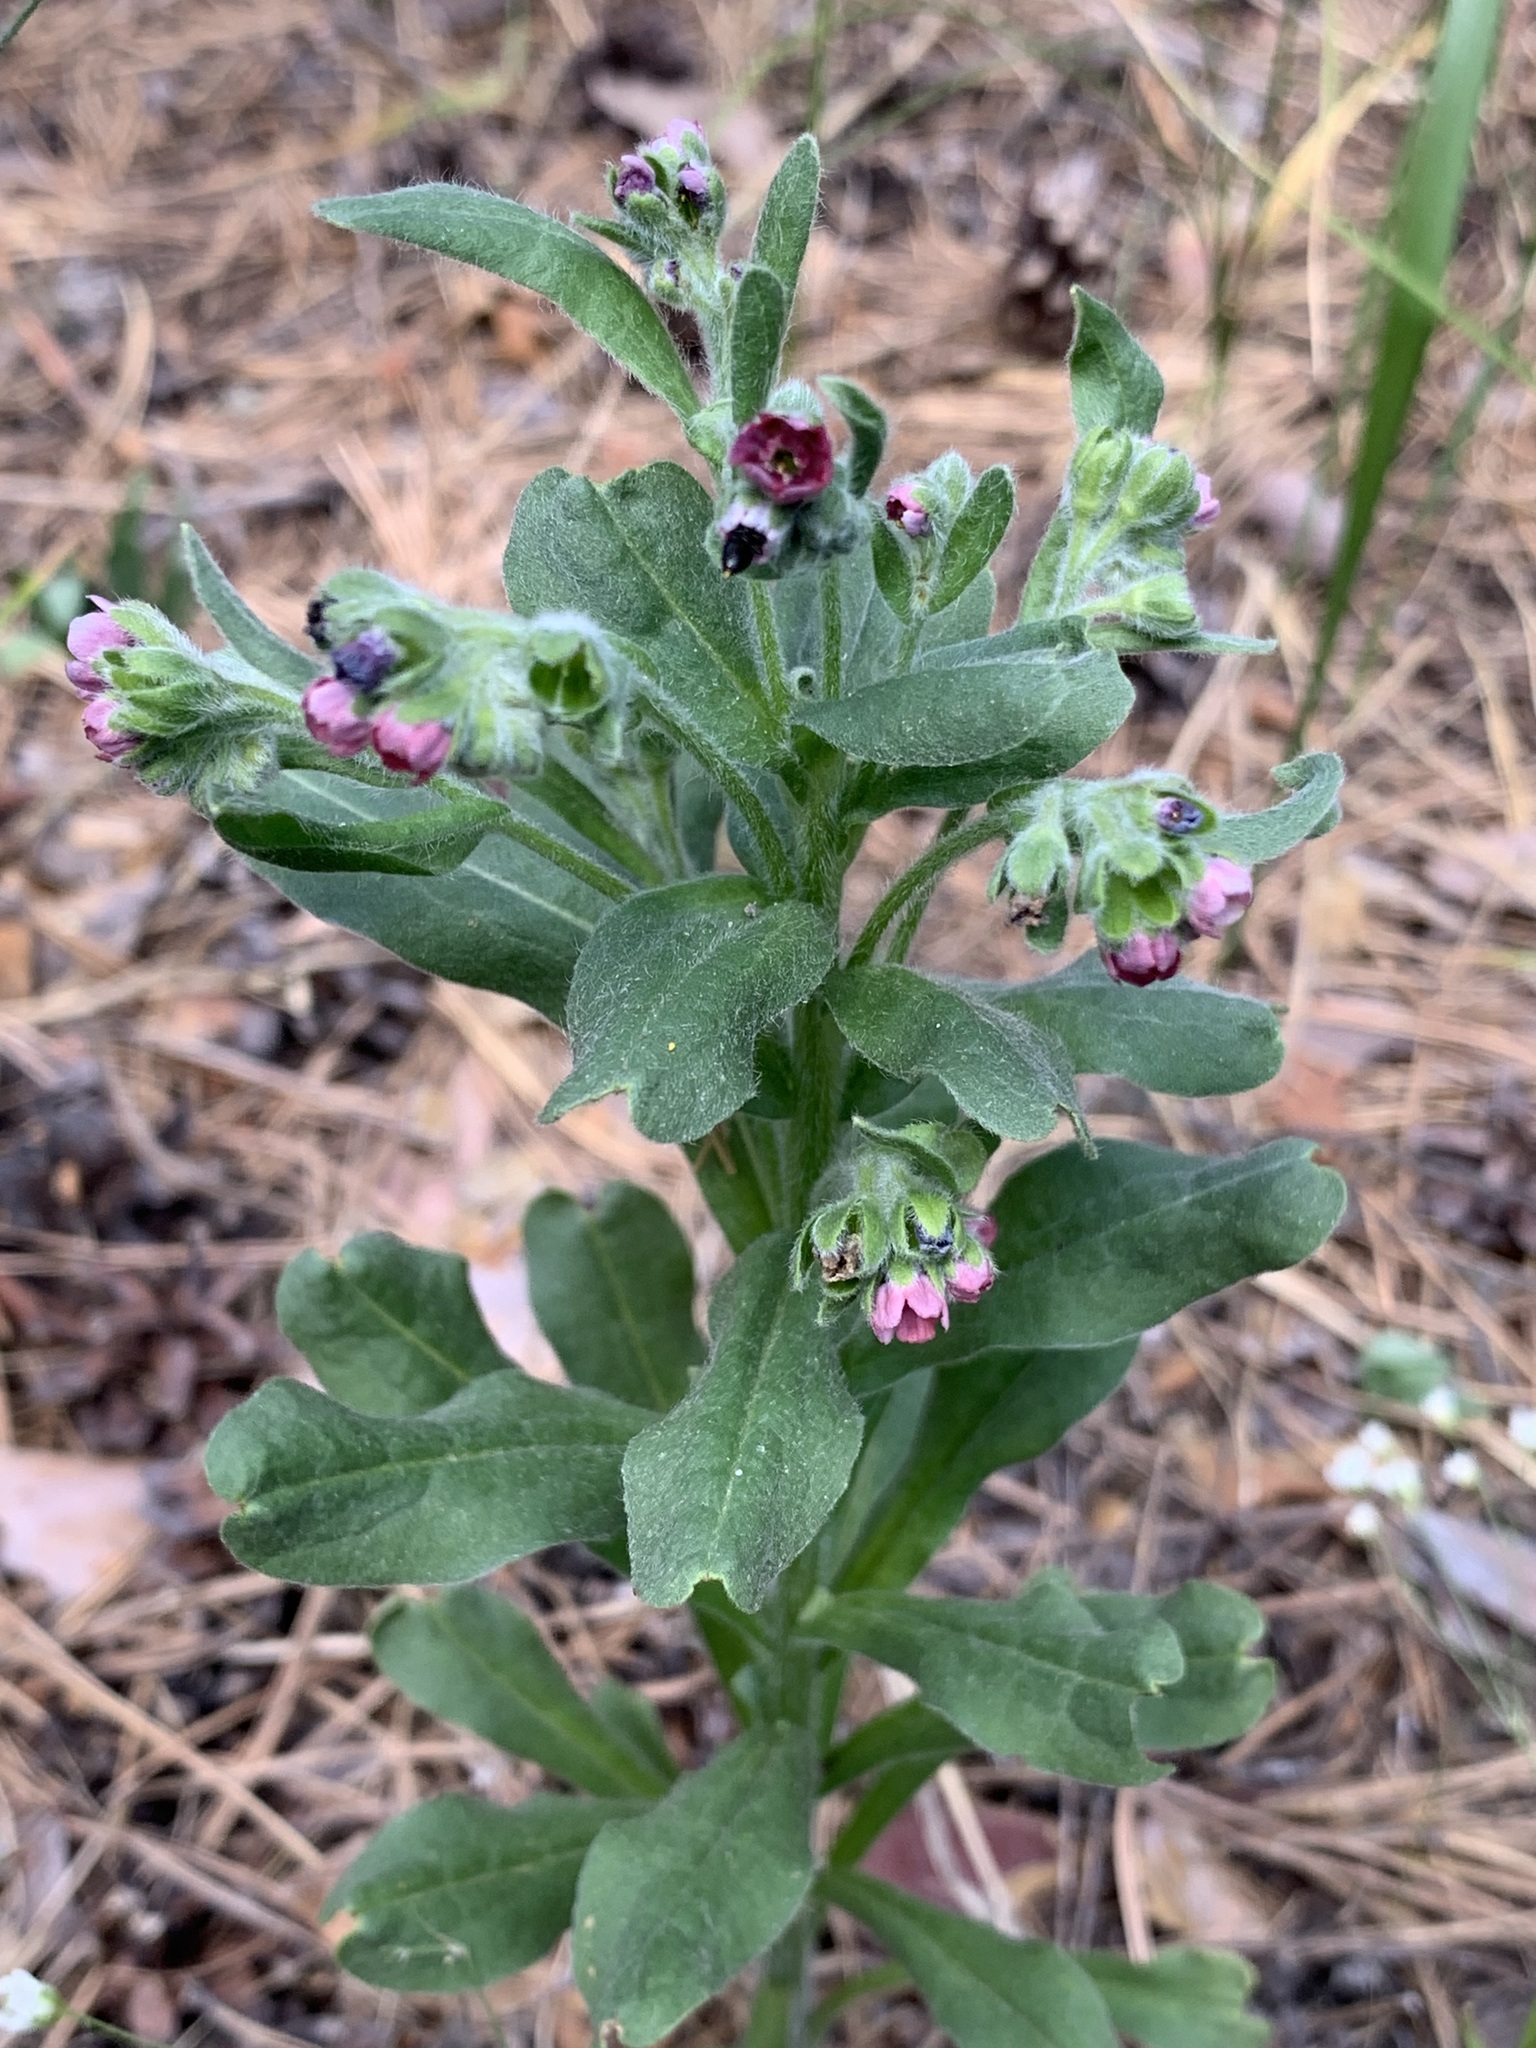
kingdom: Plantae
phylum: Tracheophyta
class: Magnoliopsida
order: Boraginales
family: Boraginaceae
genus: Cynoglossum
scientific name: Cynoglossum officinale
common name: Hound's-tongue
